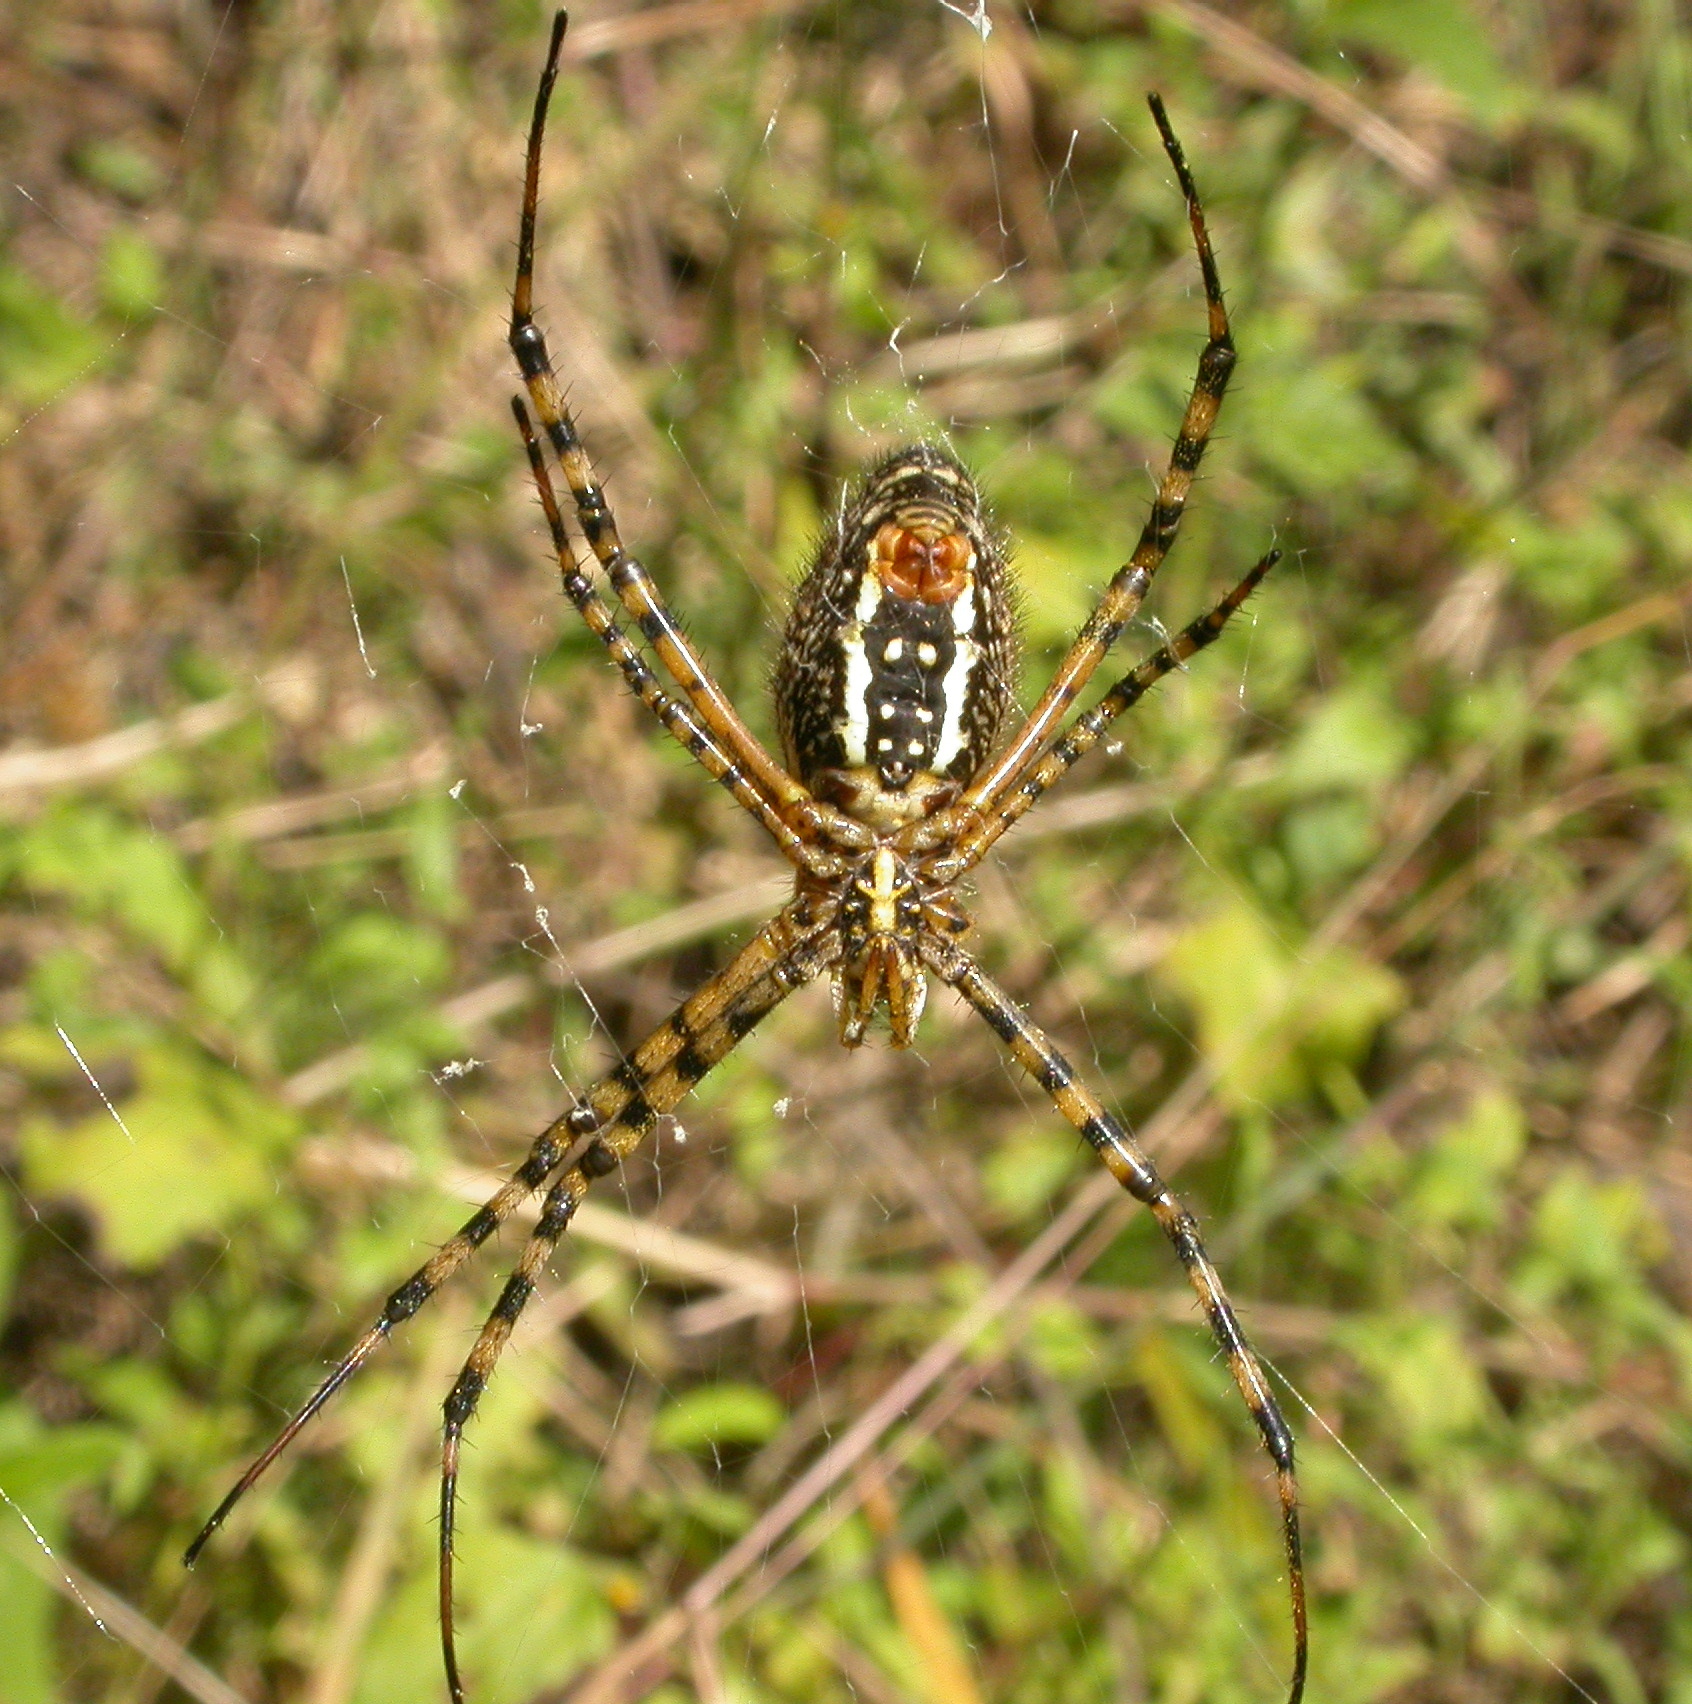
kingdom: Animalia
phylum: Arthropoda
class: Arachnida
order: Araneae
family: Araneidae
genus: Argiope
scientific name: Argiope trifasciata
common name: Banded garden spider
